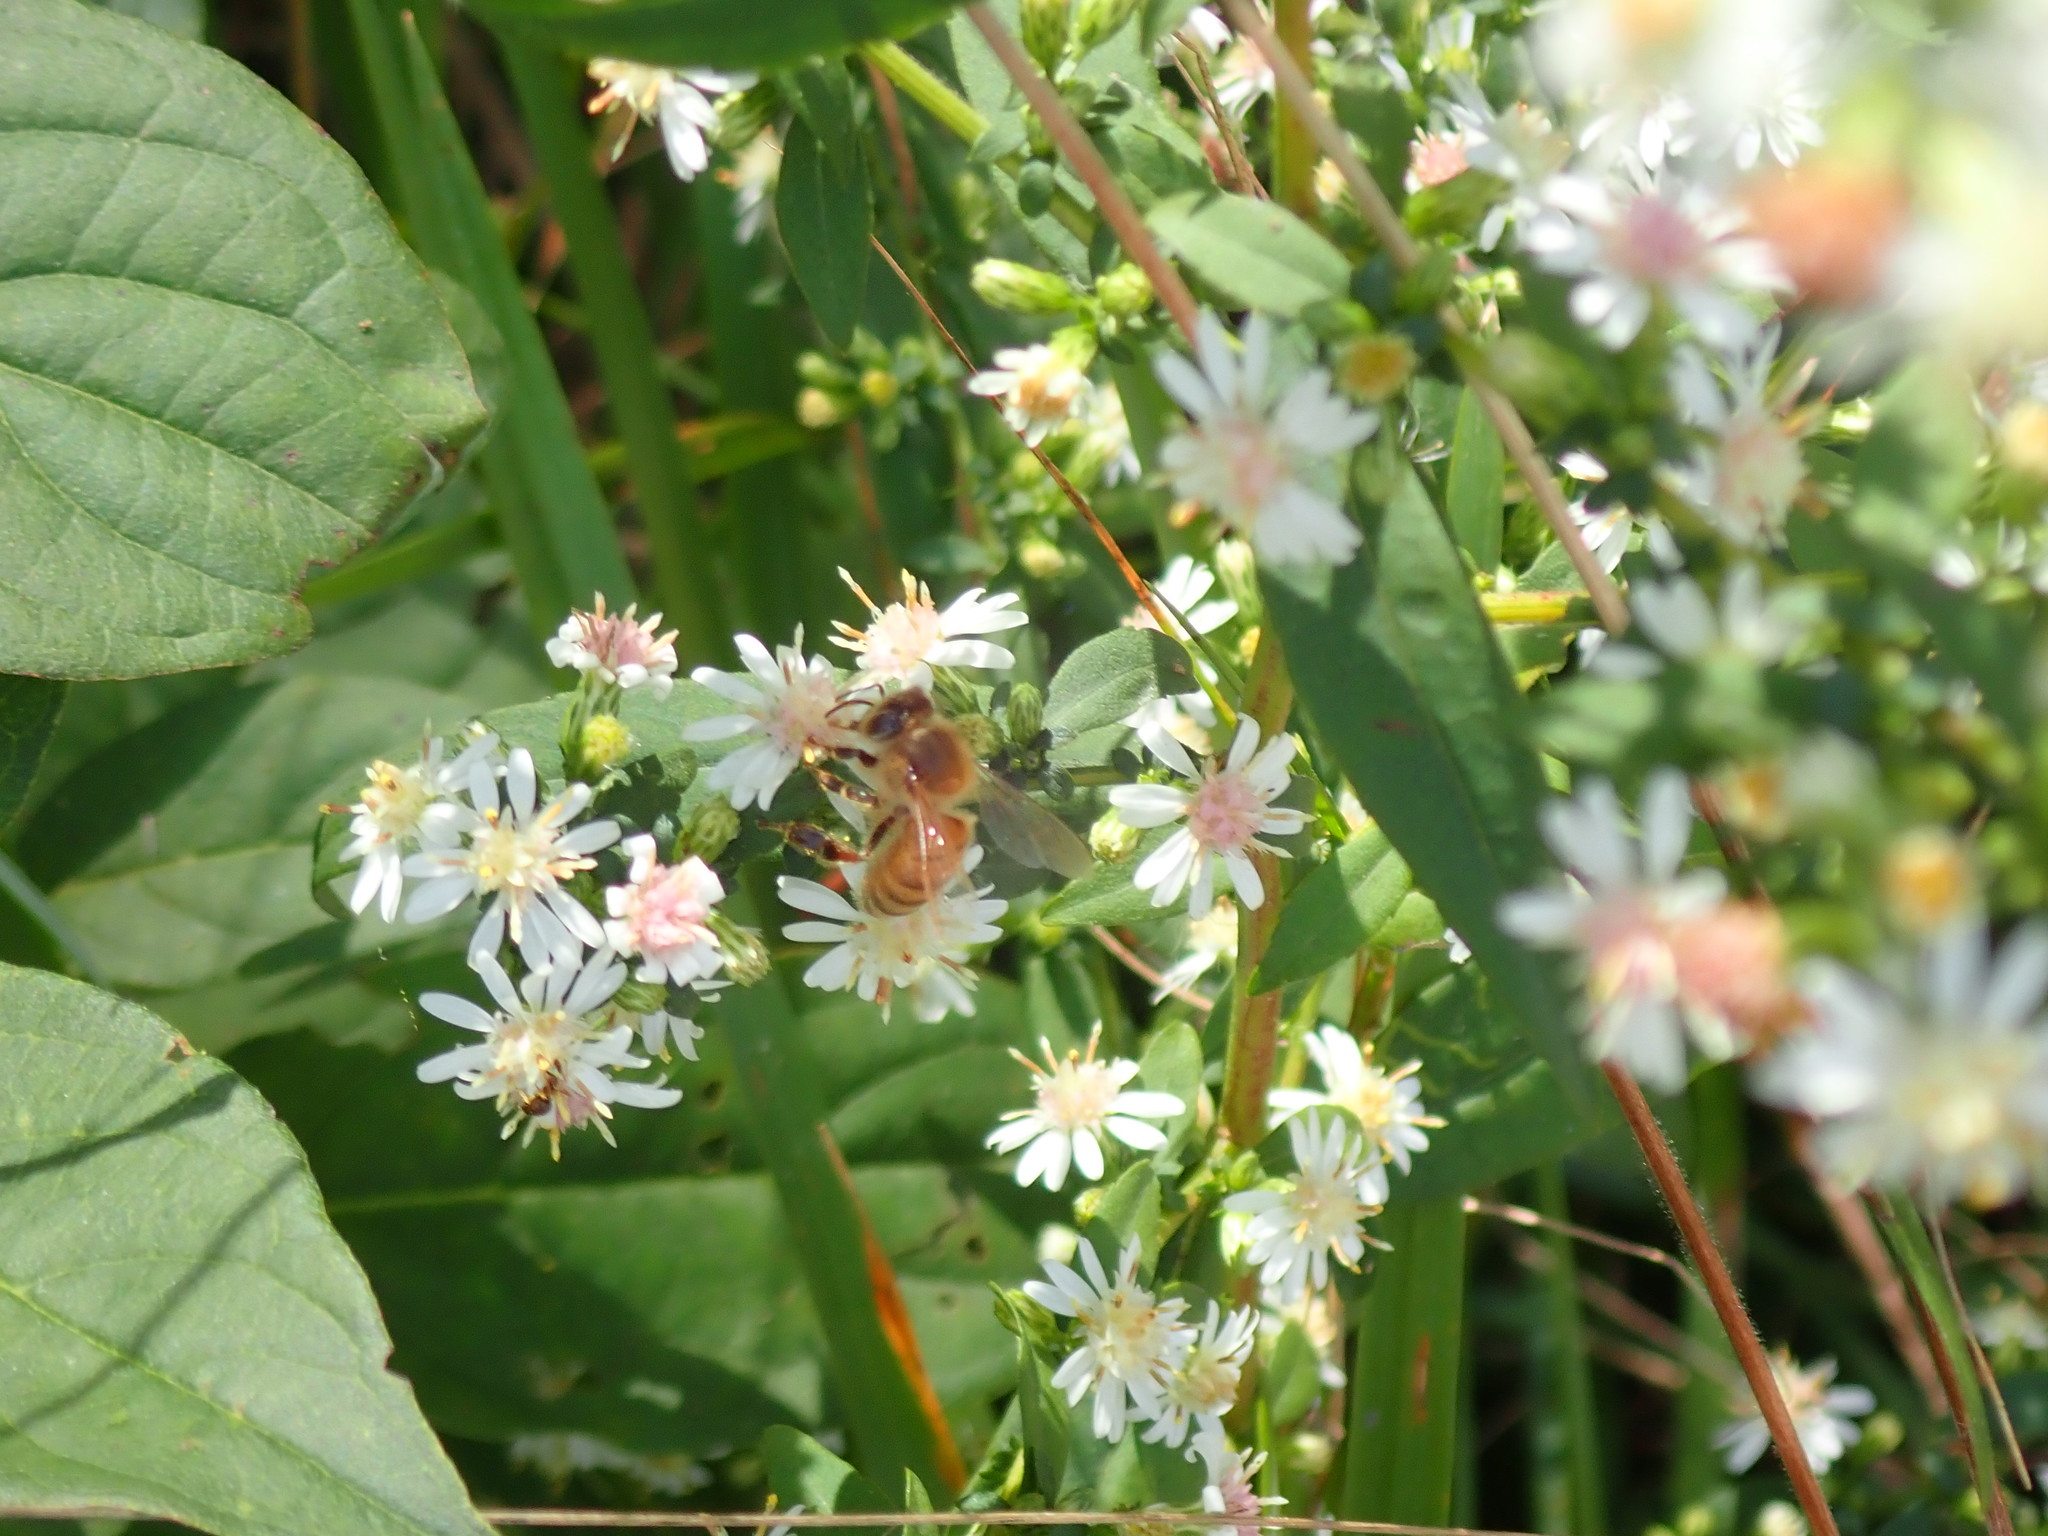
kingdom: Animalia
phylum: Arthropoda
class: Insecta
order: Hymenoptera
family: Apidae
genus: Apis
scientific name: Apis mellifera
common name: Honey bee
